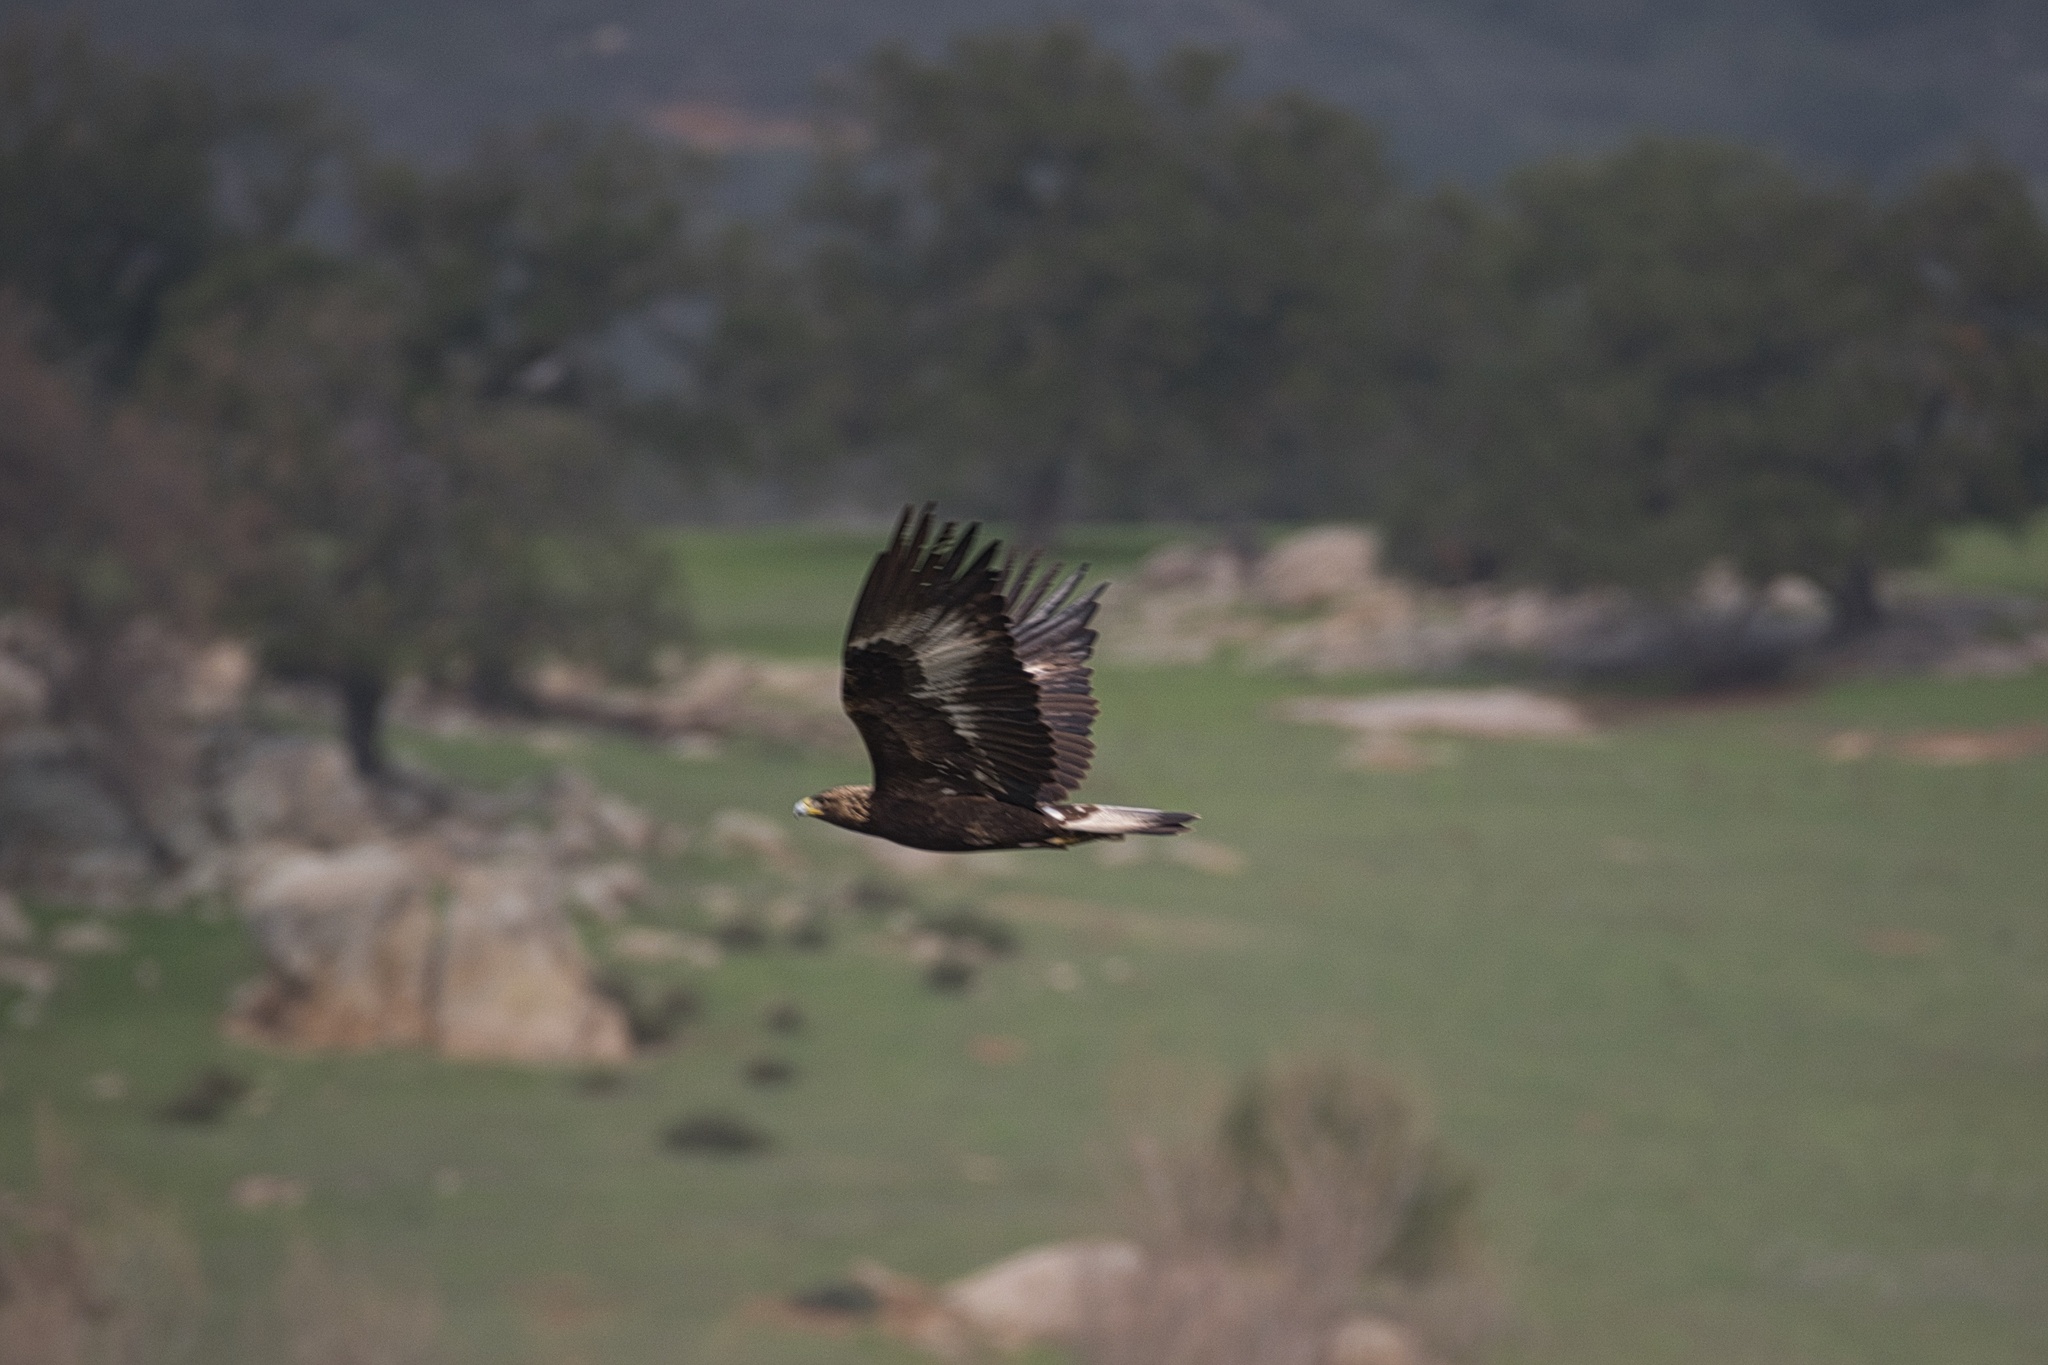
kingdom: Animalia
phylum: Chordata
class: Aves
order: Accipitriformes
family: Accipitridae
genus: Aquila
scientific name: Aquila chrysaetos
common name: Golden eagle
